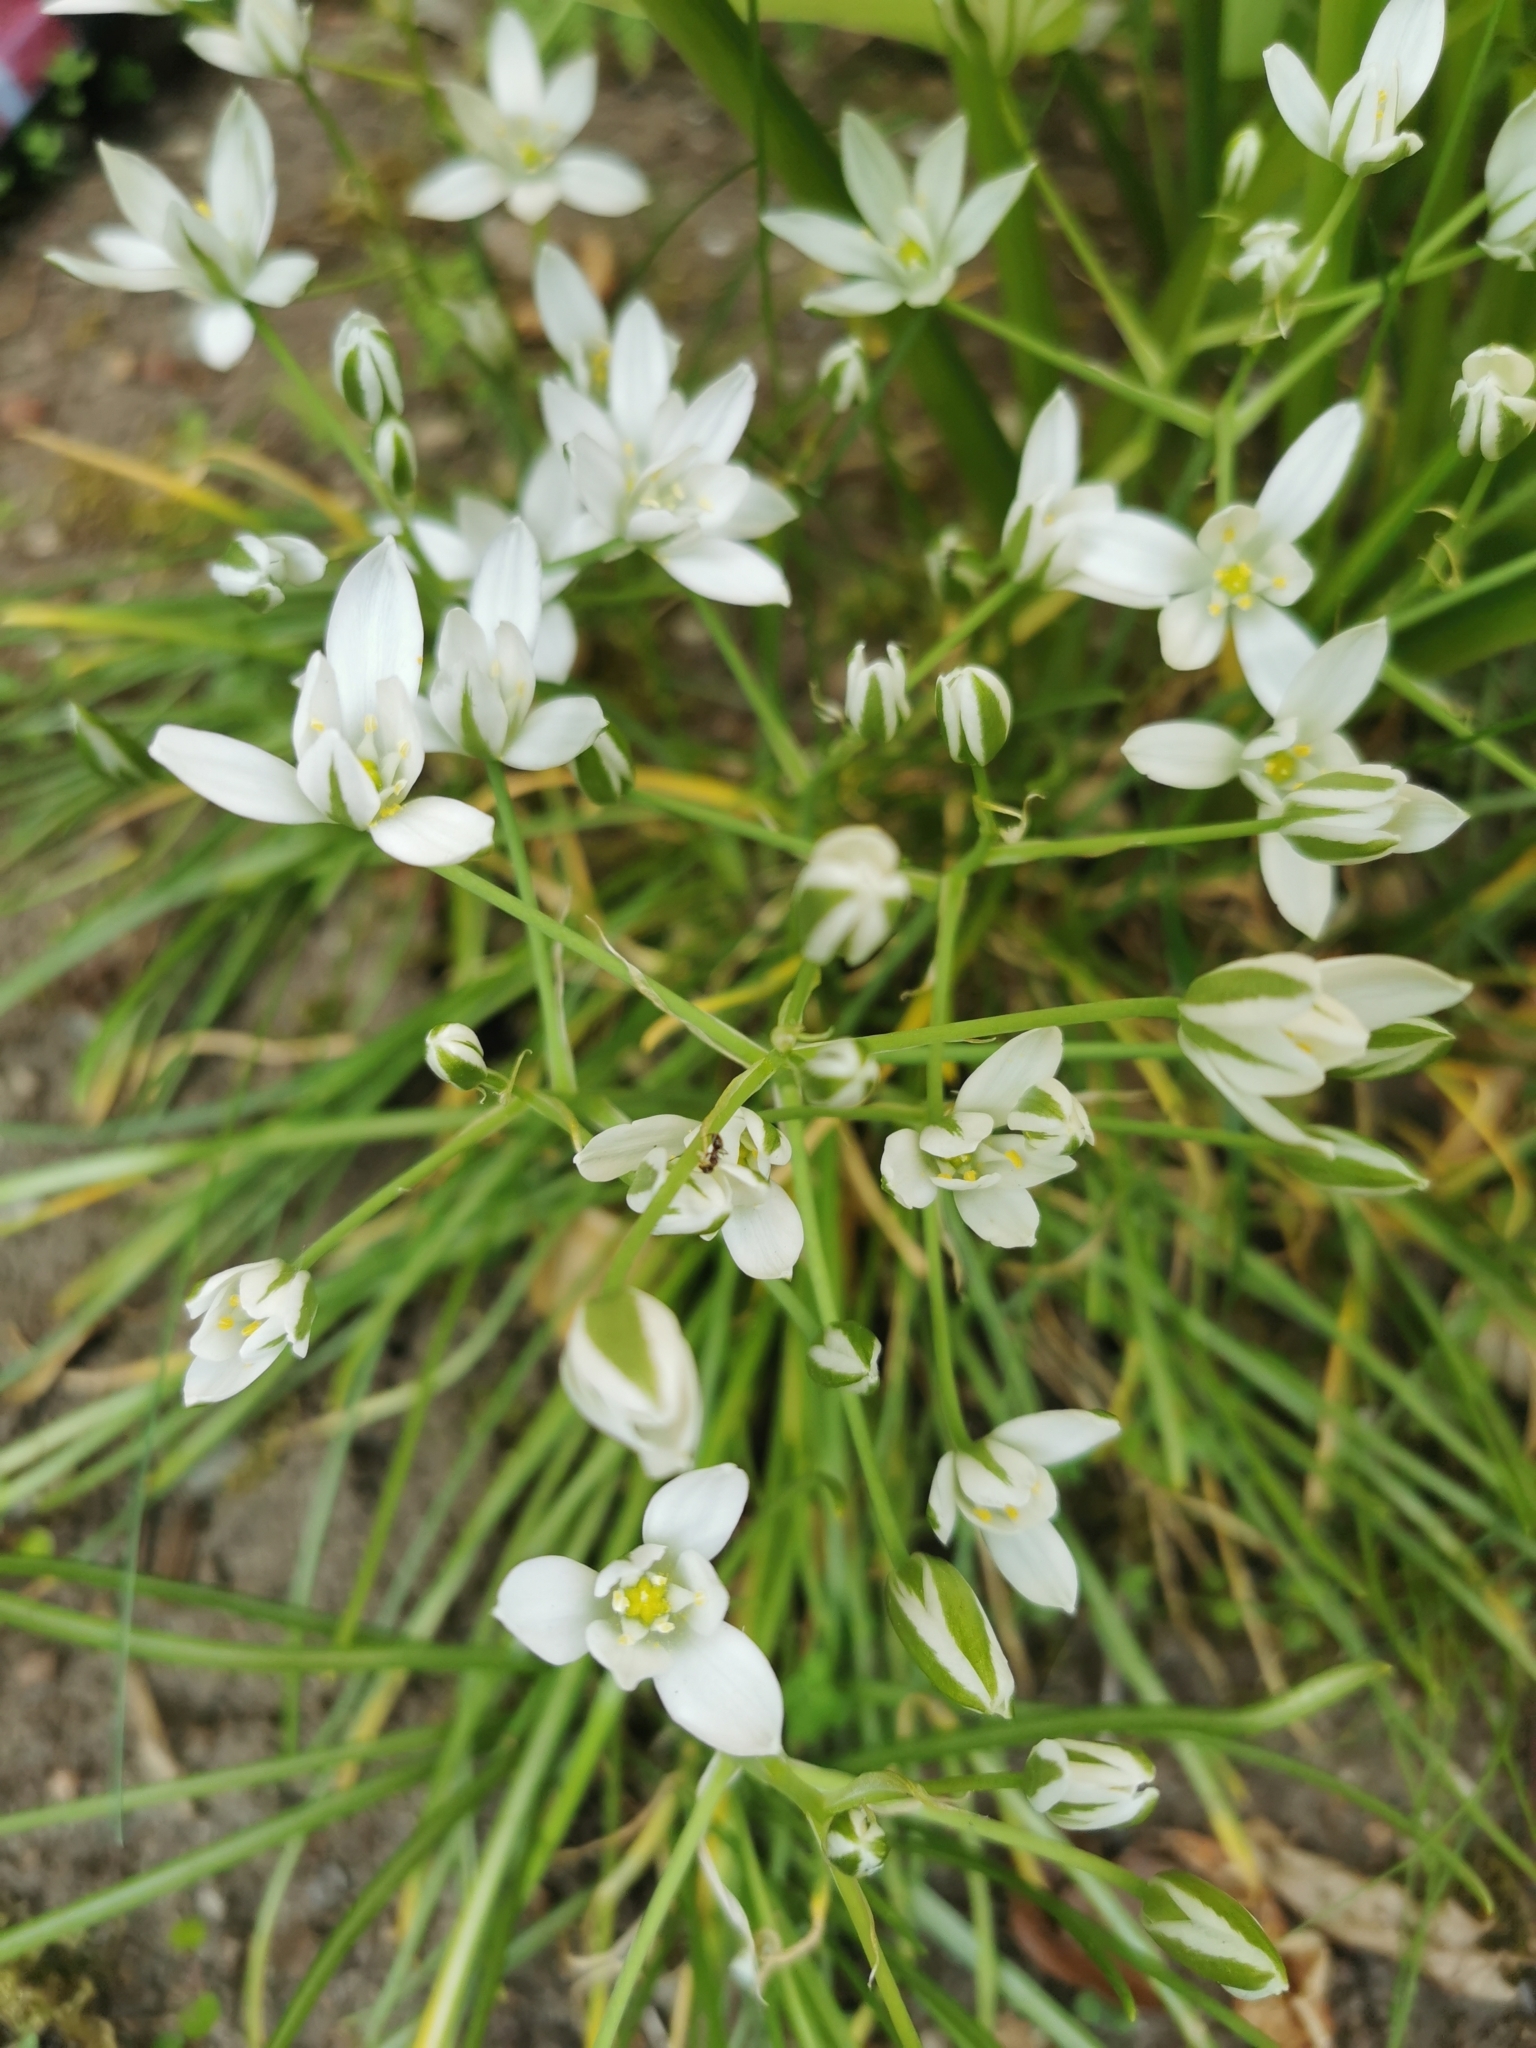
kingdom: Plantae
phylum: Tracheophyta
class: Liliopsida
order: Asparagales
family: Asparagaceae
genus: Ornithogalum
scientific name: Ornithogalum umbellatum
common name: Garden star-of-bethlehem
